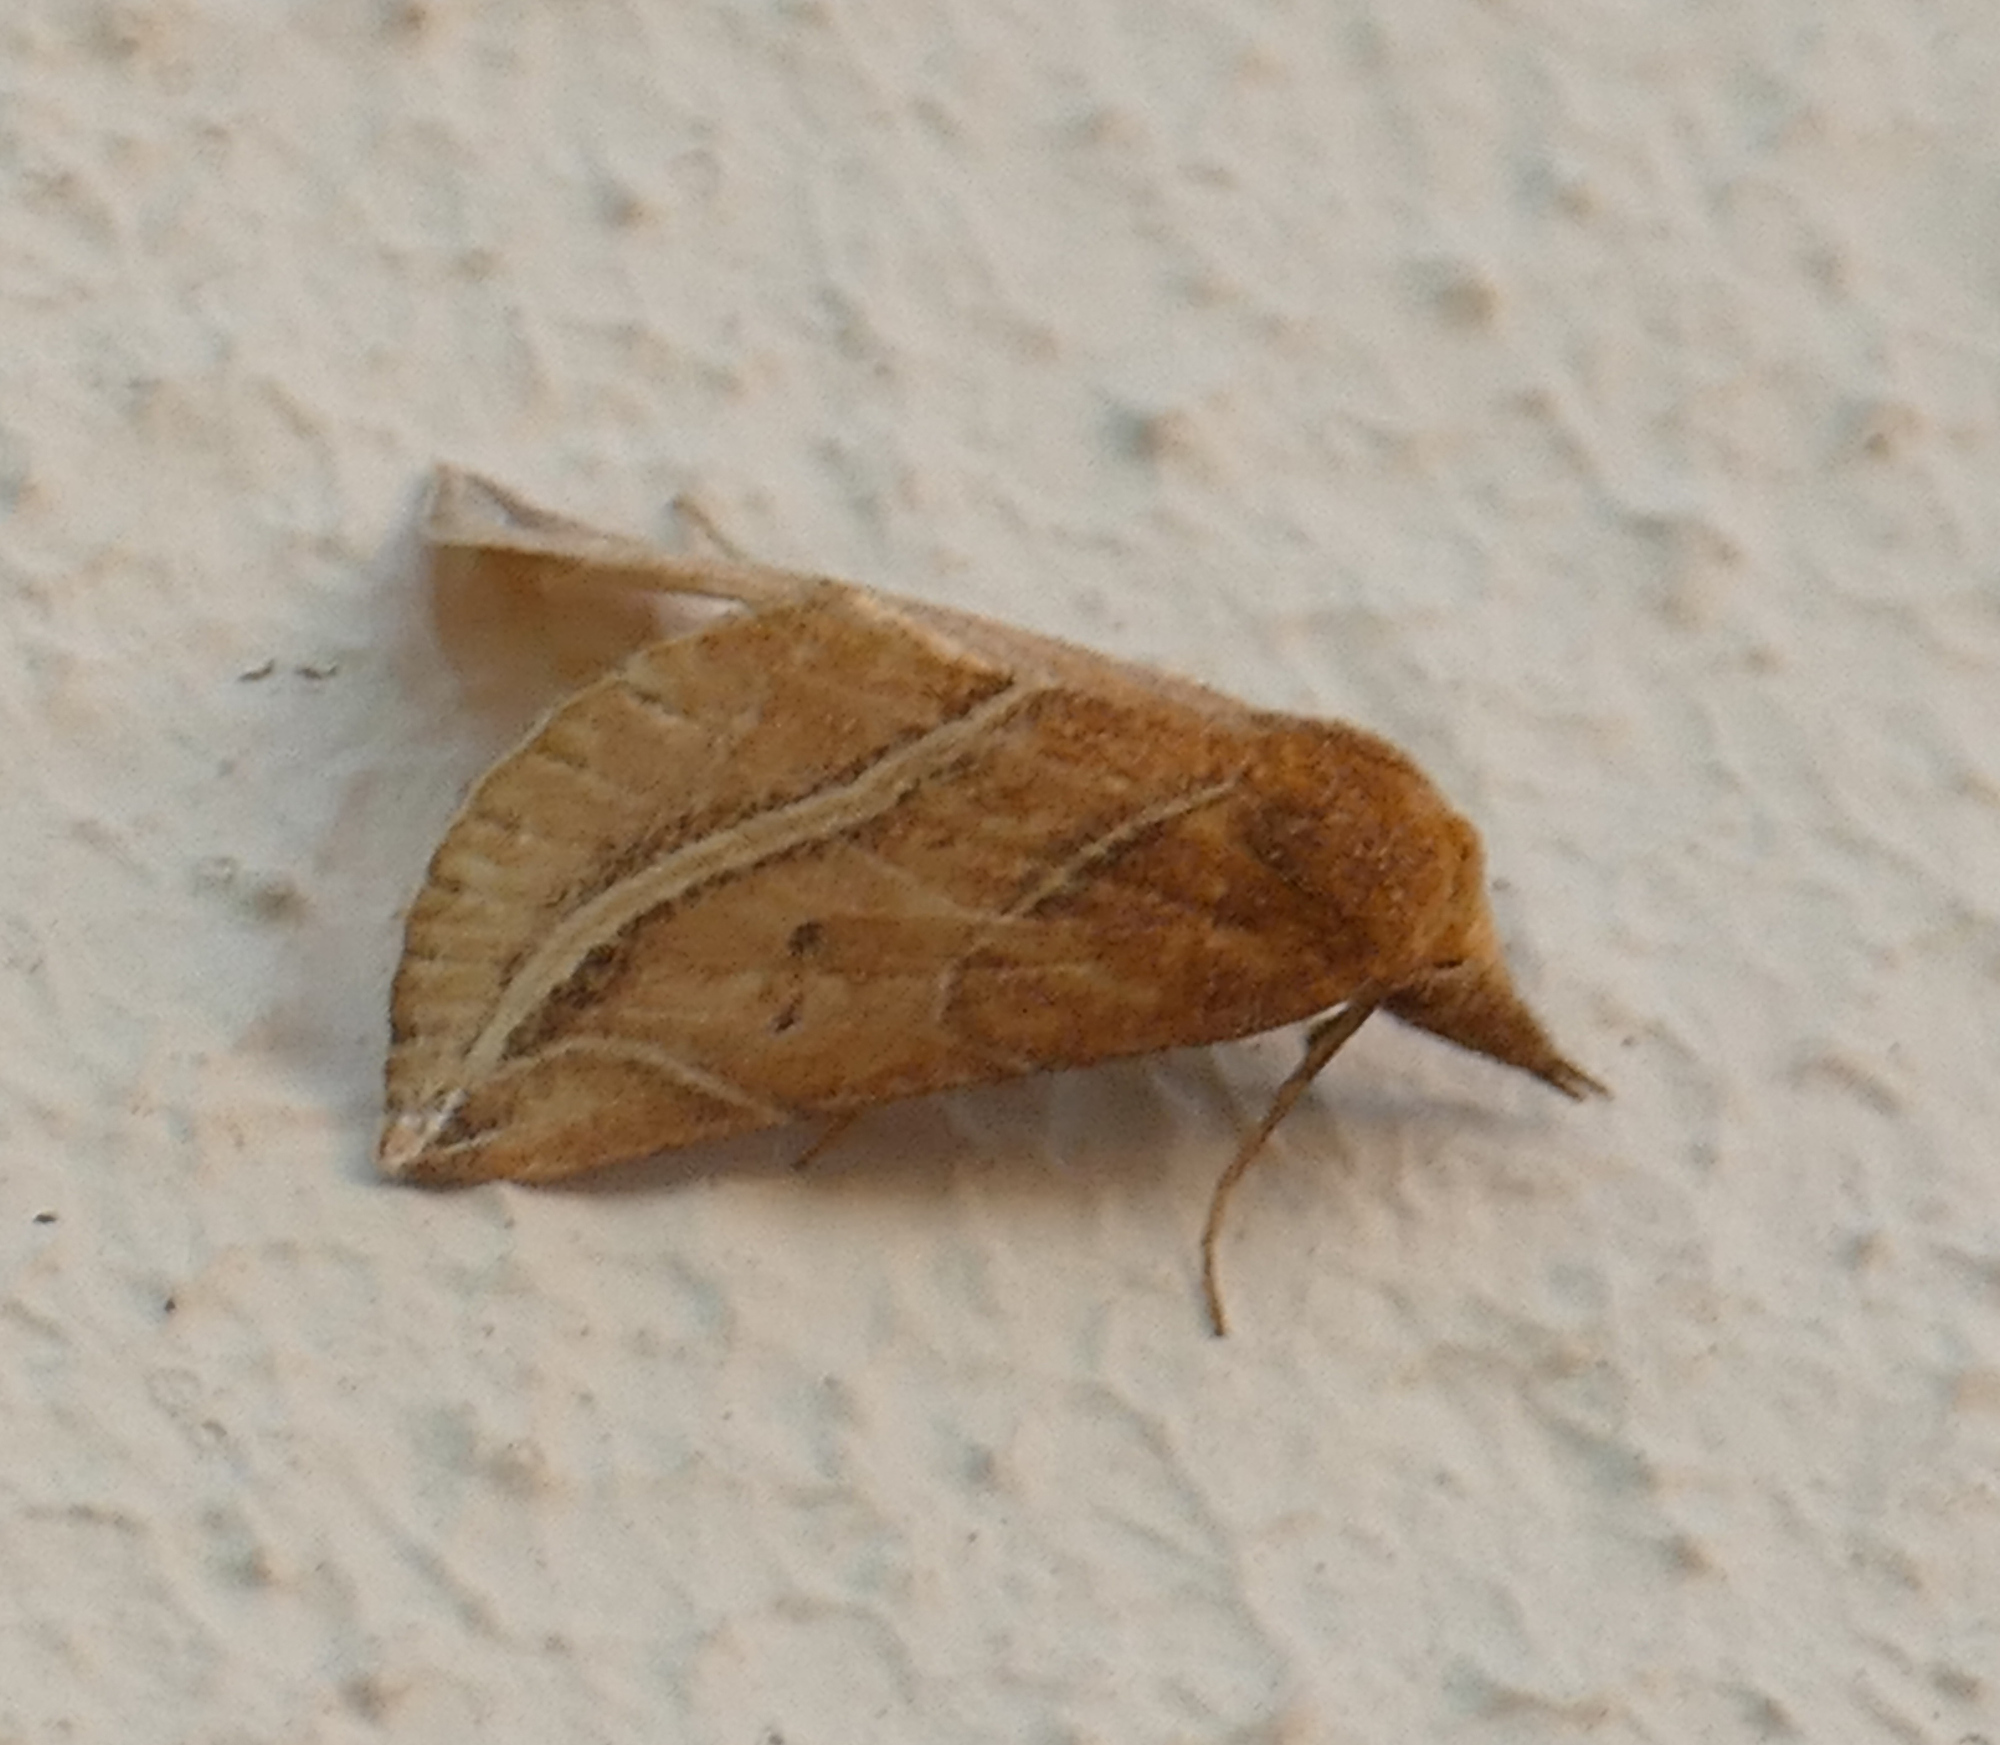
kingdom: Animalia
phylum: Arthropoda
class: Insecta
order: Lepidoptera
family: Erebidae
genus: Phyprosopus
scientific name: Phyprosopus callitrichoides
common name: Curved-lined owlet
